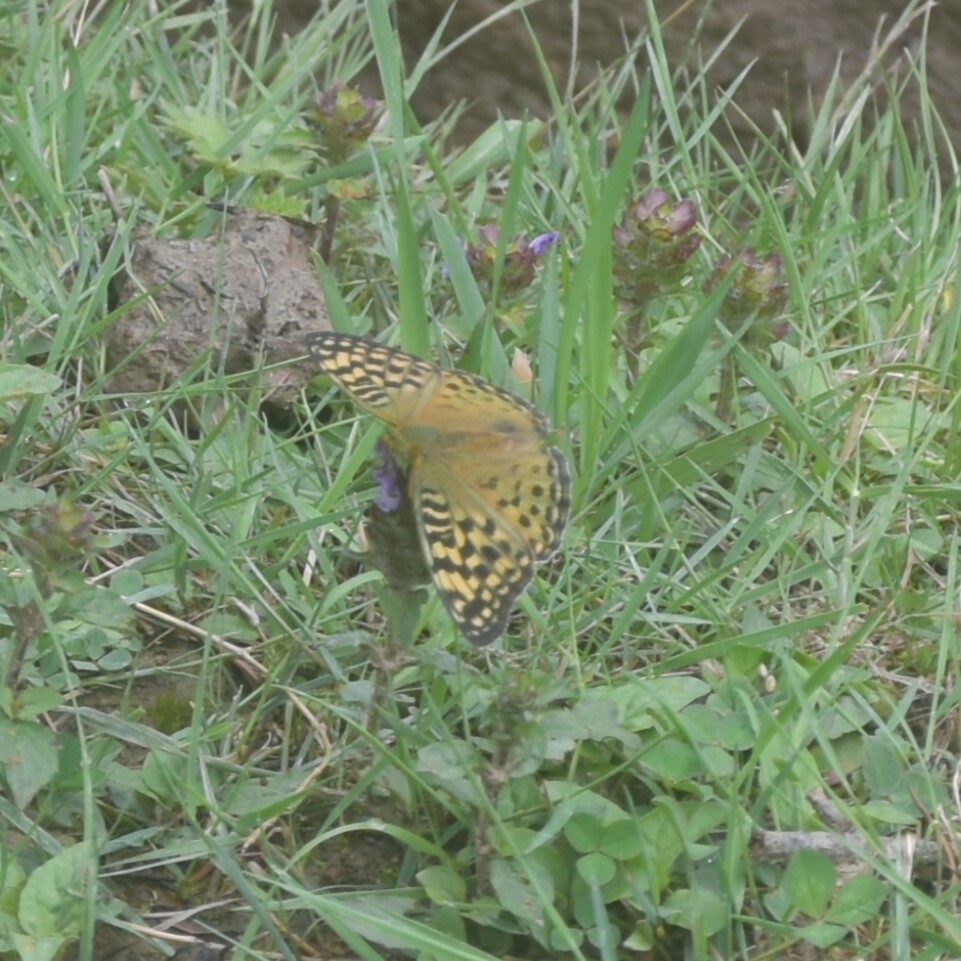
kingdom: Animalia
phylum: Arthropoda
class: Insecta
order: Lepidoptera
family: Nymphalidae
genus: Fabriciana
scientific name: Fabriciana kamala
